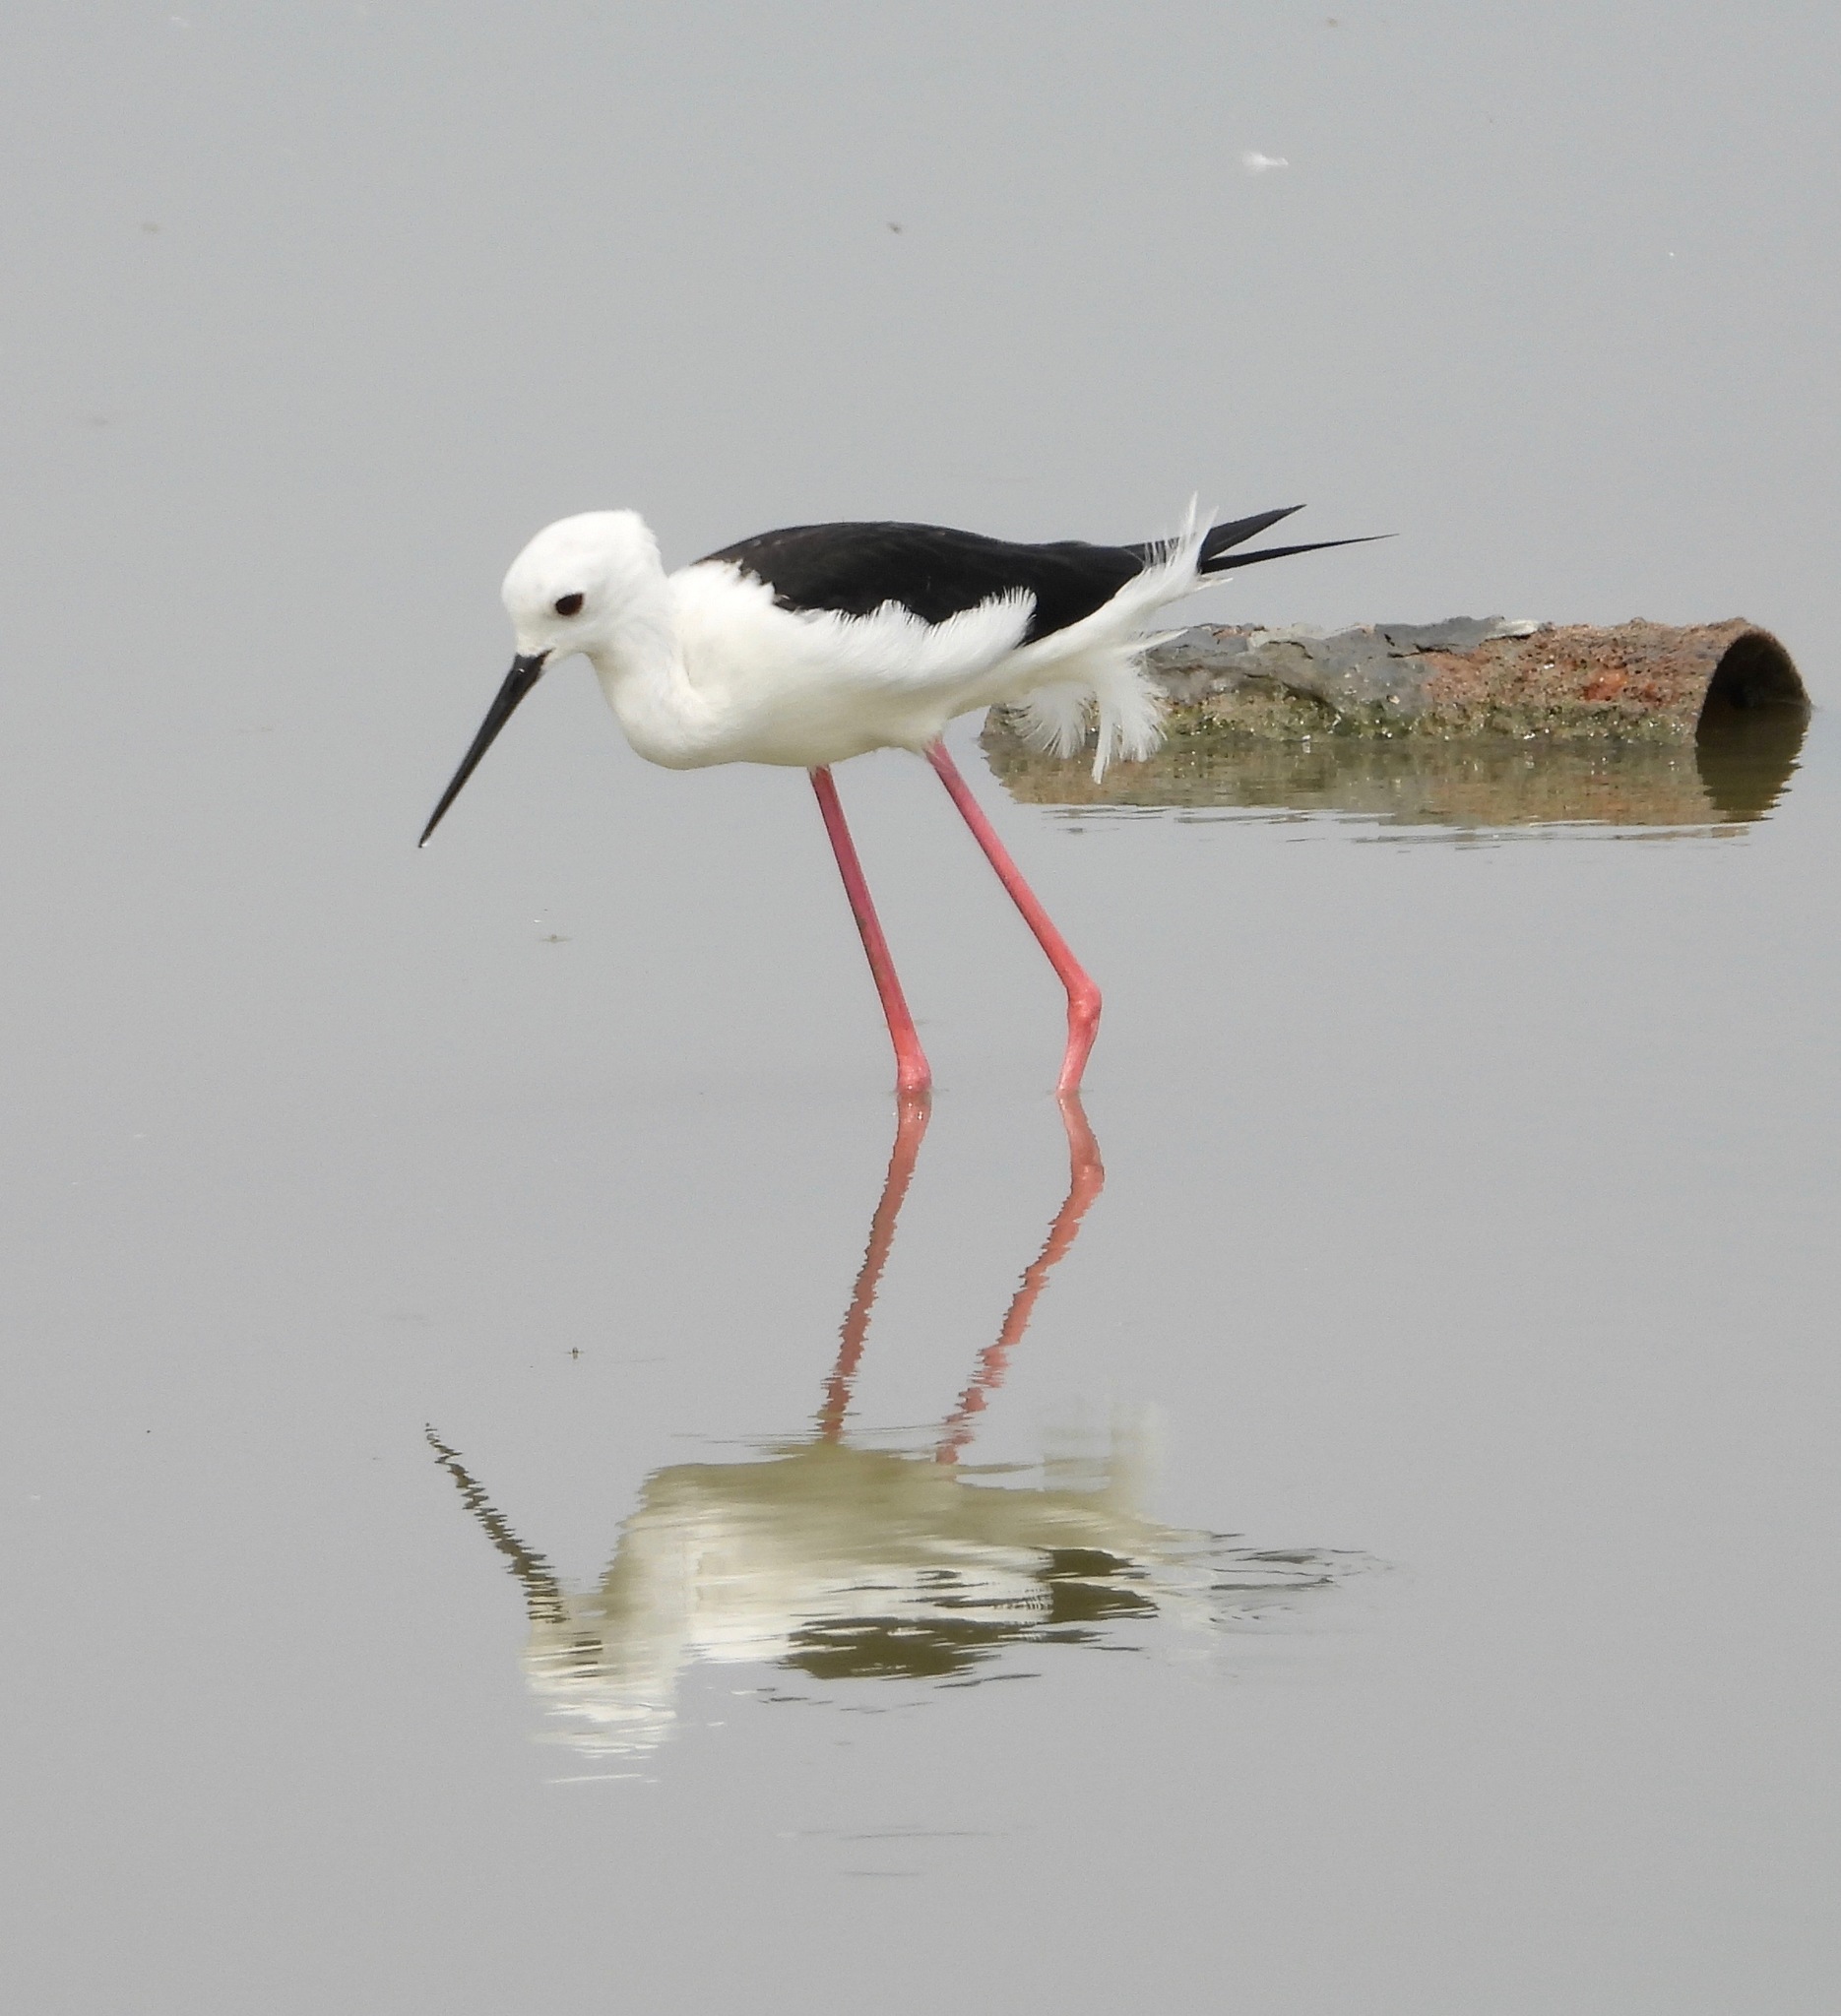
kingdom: Animalia
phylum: Chordata
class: Aves
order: Charadriiformes
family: Recurvirostridae
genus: Himantopus
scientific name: Himantopus himantopus
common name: Black-winged stilt
